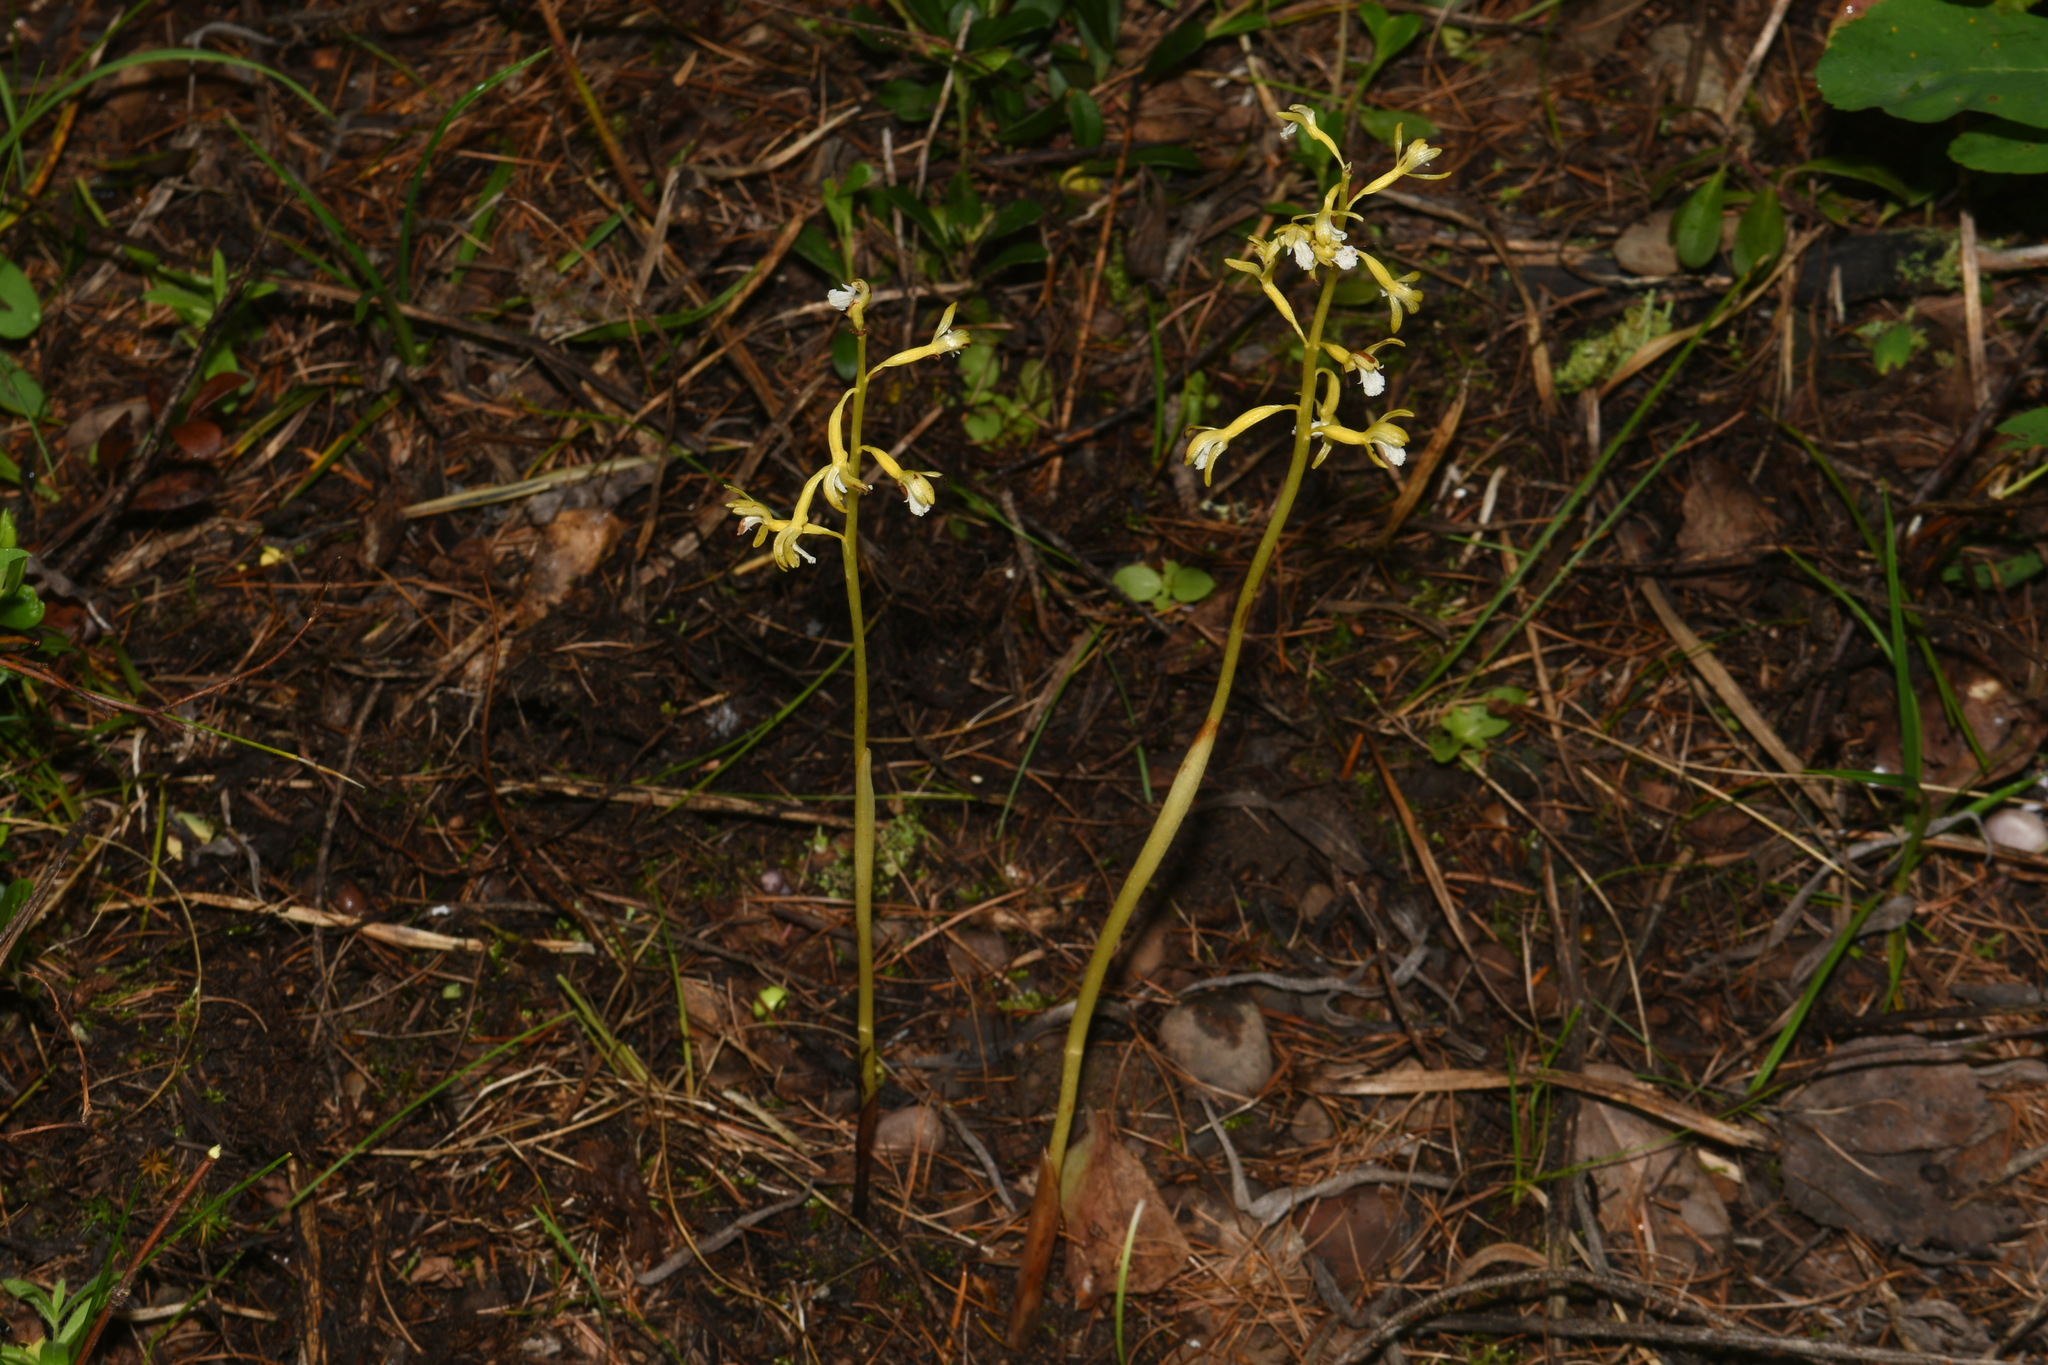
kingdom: Plantae
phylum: Tracheophyta
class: Liliopsida
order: Asparagales
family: Orchidaceae
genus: Corallorhiza
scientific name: Corallorhiza maculata
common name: Spotted coralroot
